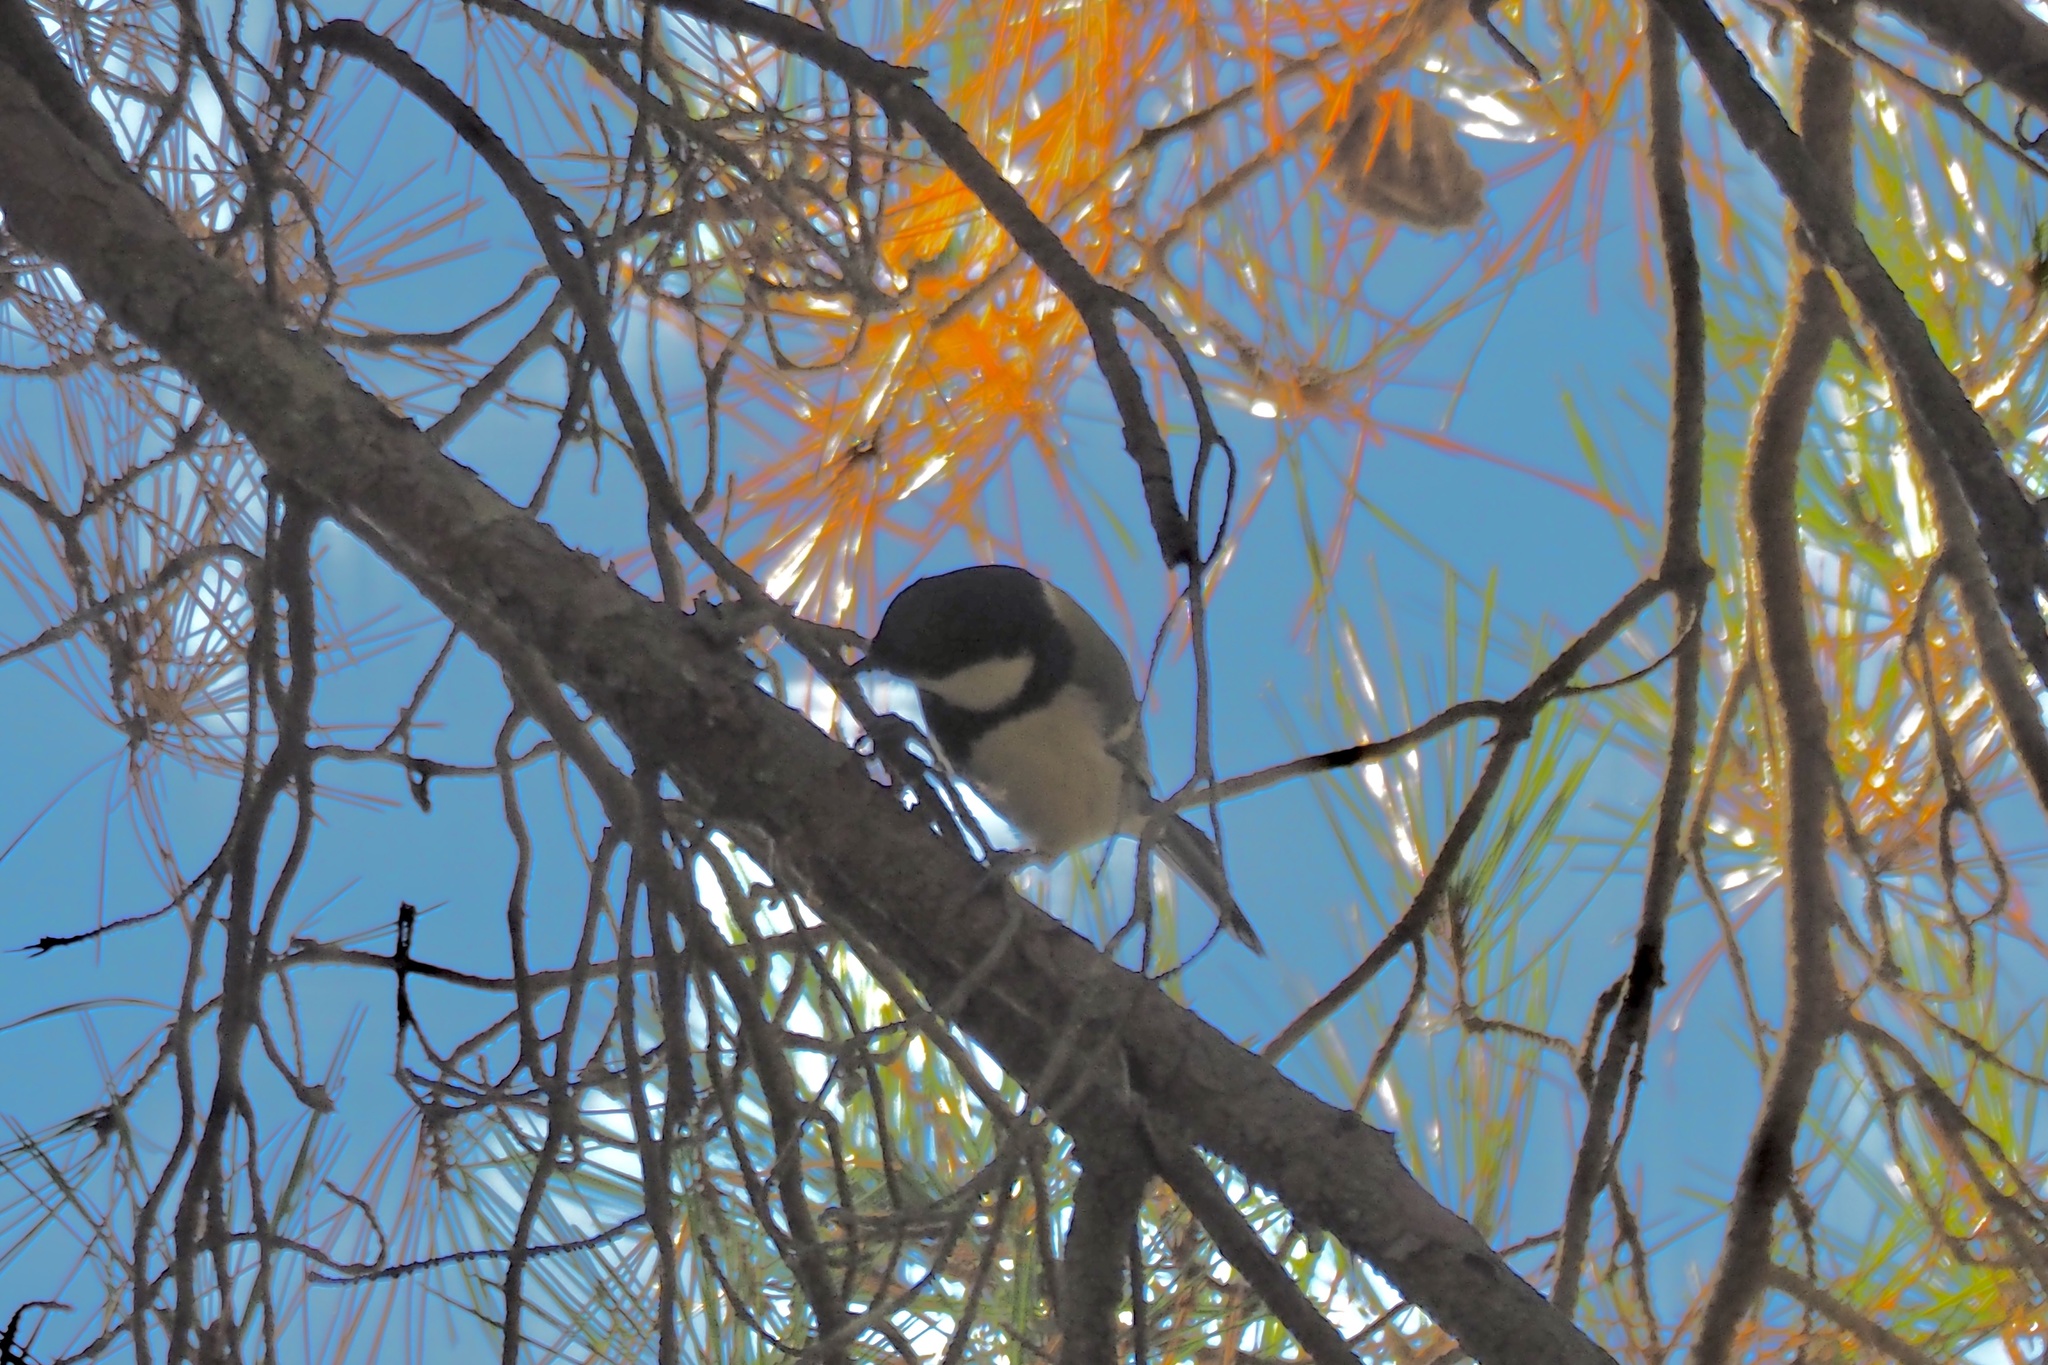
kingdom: Animalia
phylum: Chordata
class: Aves
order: Passeriformes
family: Paridae
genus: Parus
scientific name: Parus minor
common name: Japanese tit
